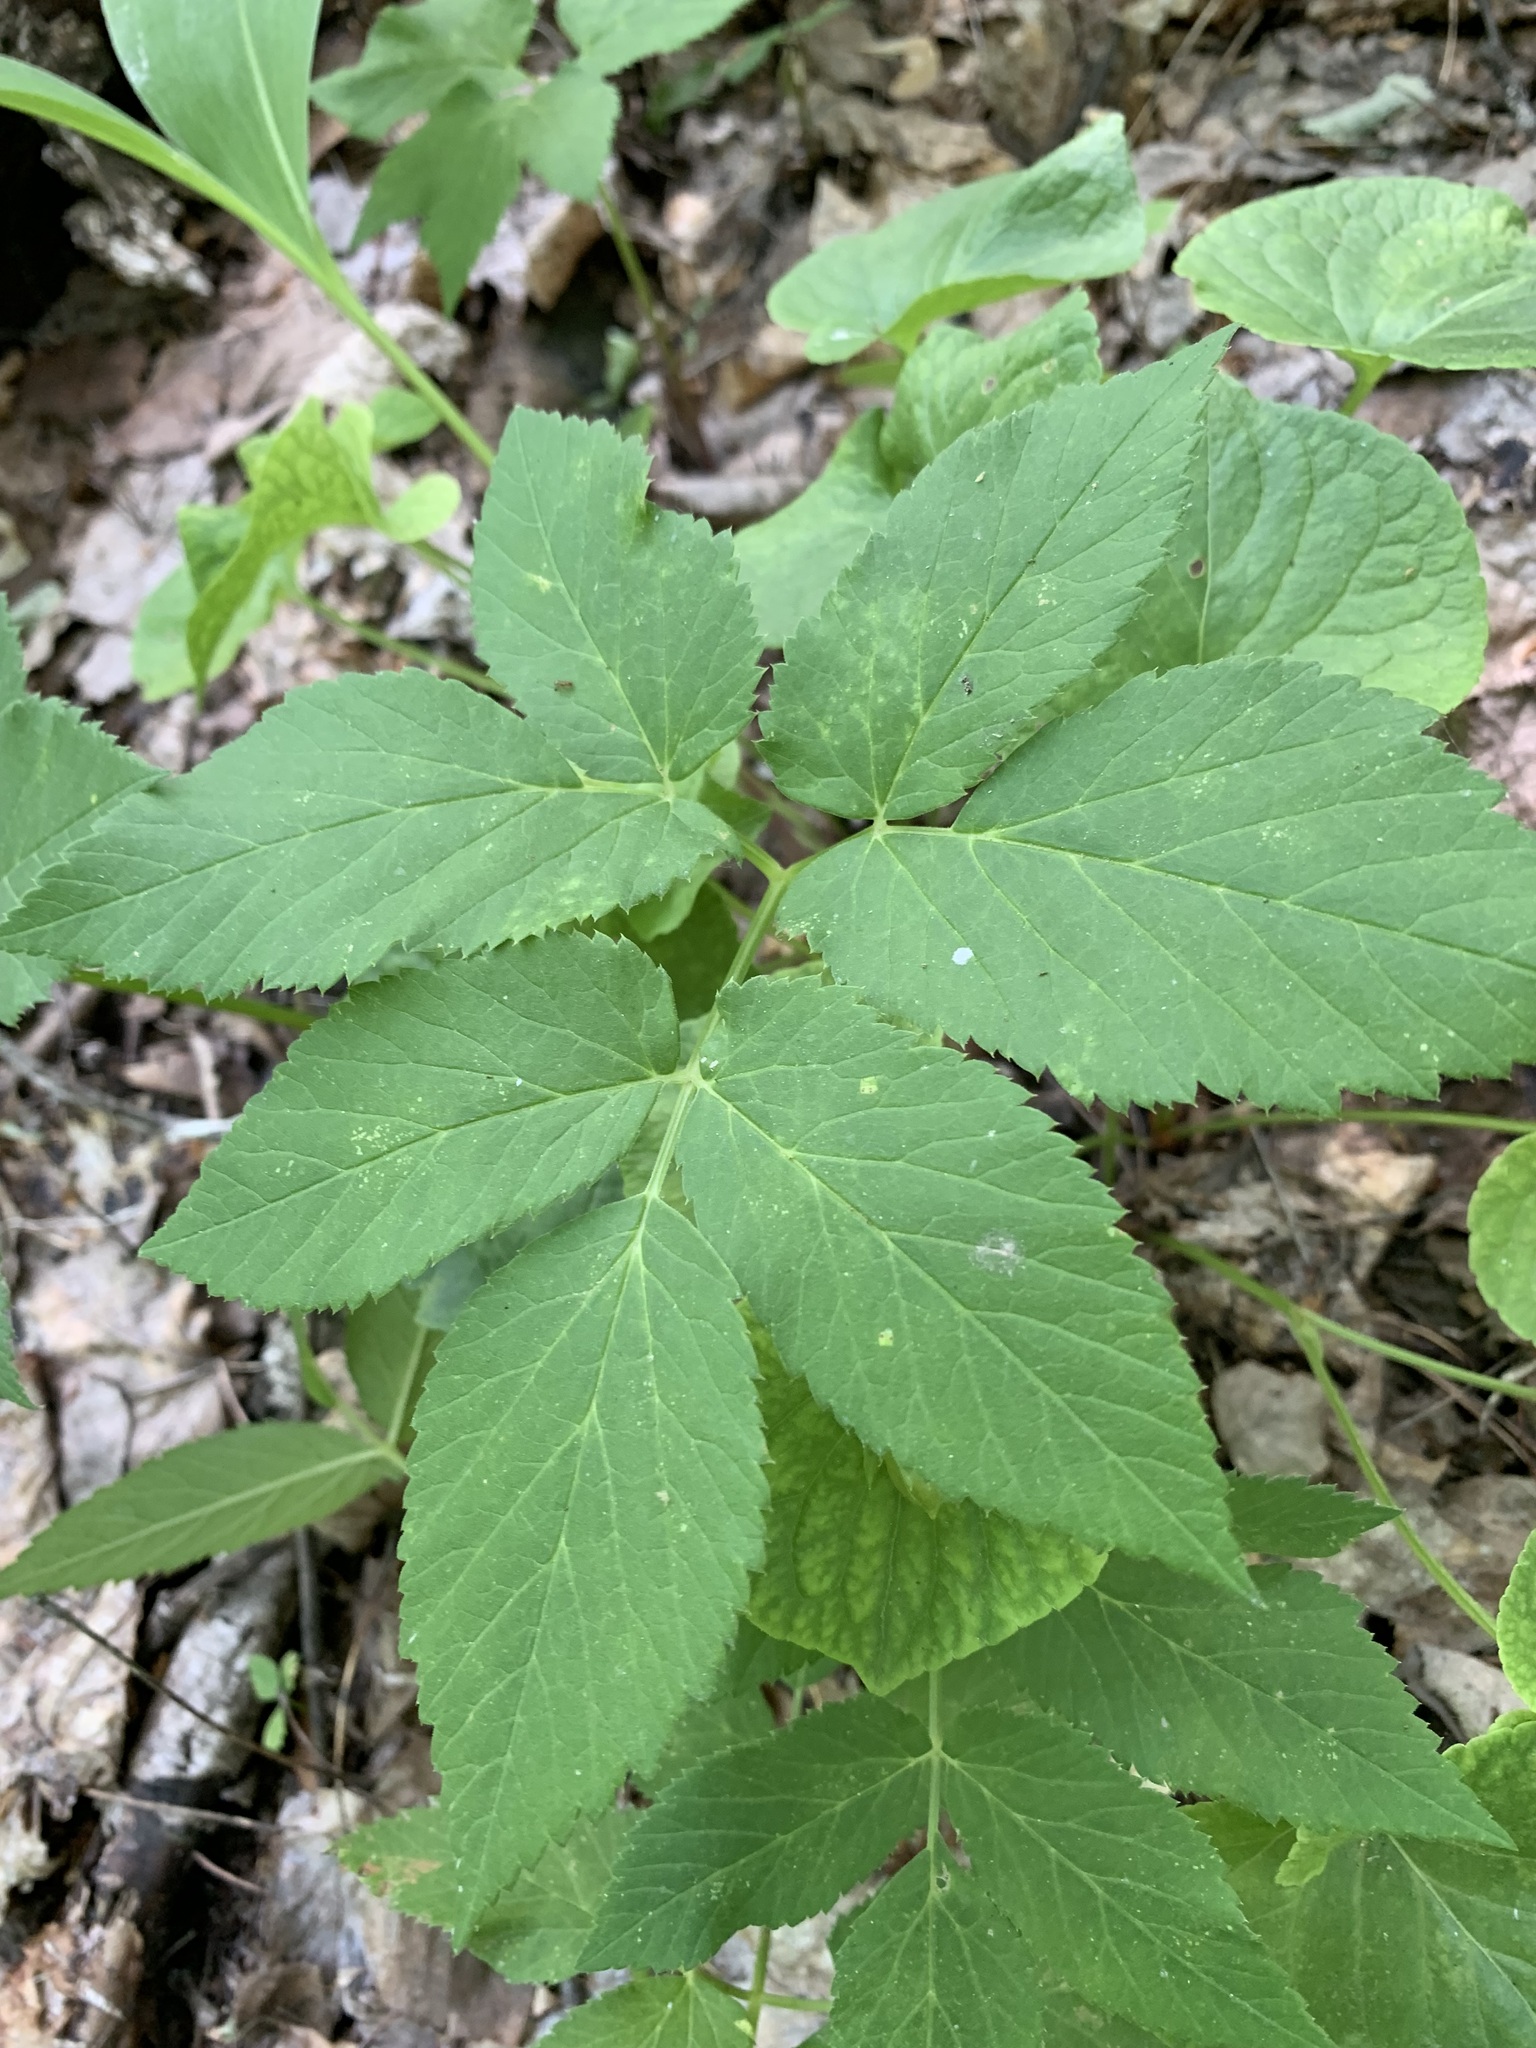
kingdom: Plantae
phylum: Tracheophyta
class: Magnoliopsida
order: Apiales
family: Apiaceae
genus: Aegopodium
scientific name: Aegopodium podagraria
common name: Ground-elder
